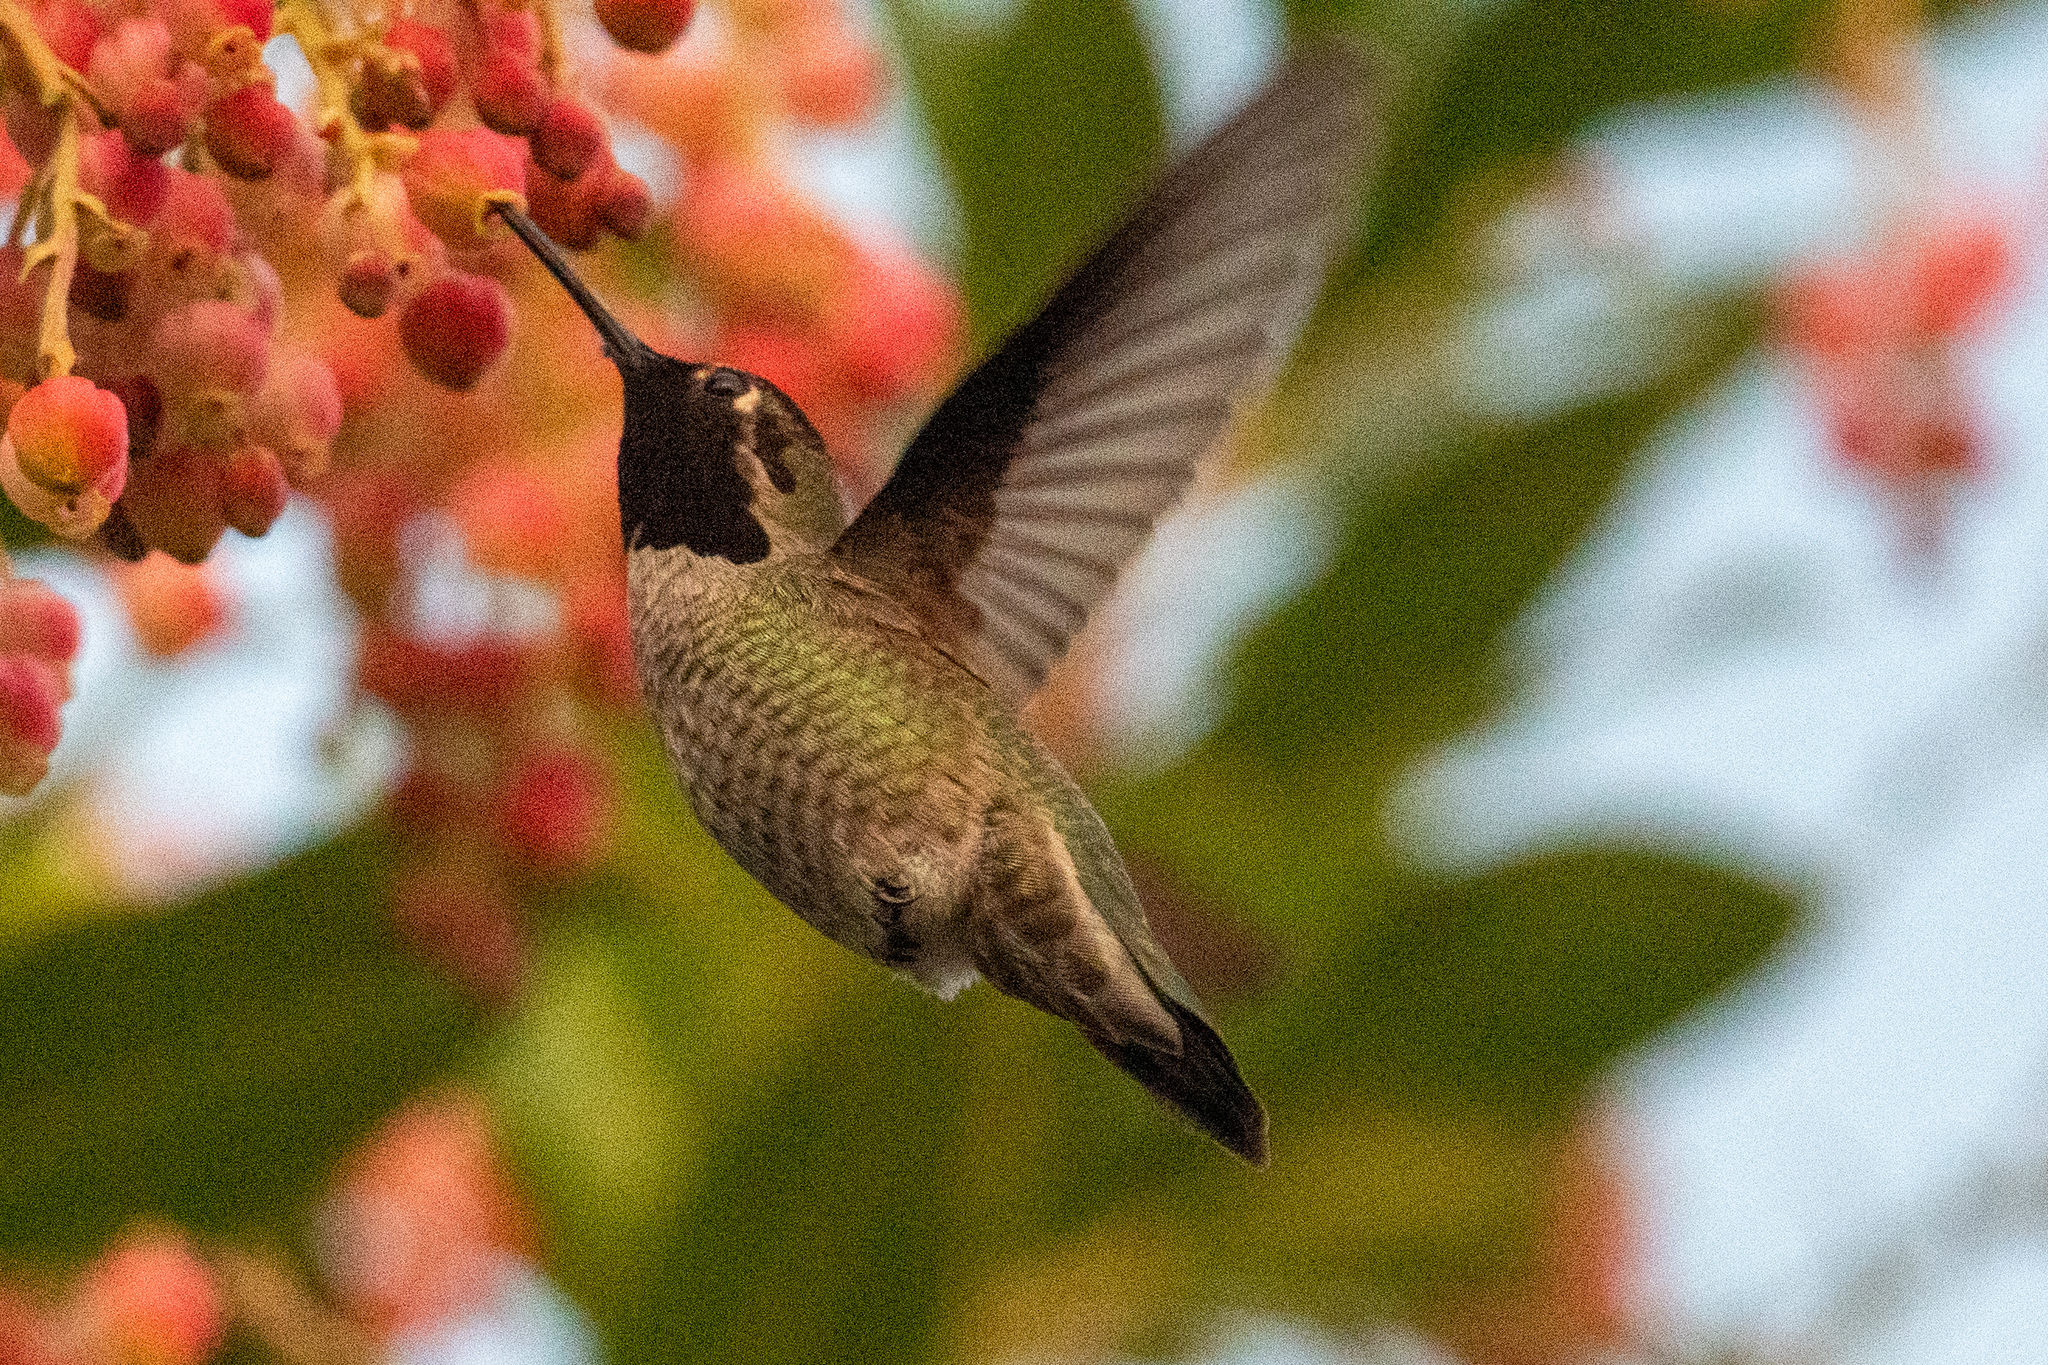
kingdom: Animalia
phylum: Chordata
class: Aves
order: Apodiformes
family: Trochilidae
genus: Calypte
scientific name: Calypte anna
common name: Anna's hummingbird
